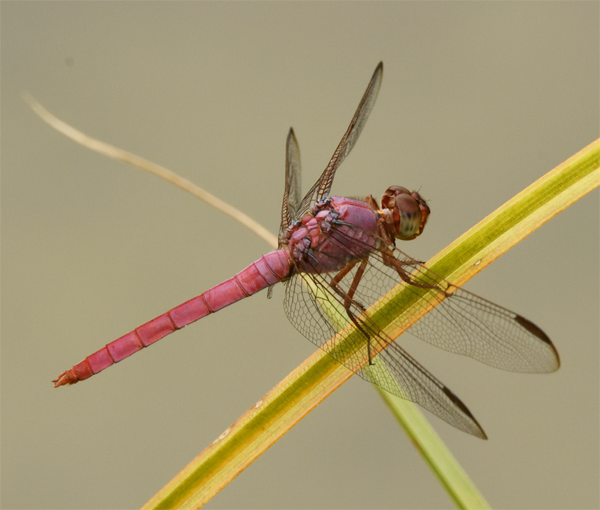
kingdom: Animalia
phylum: Arthropoda
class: Insecta
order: Odonata
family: Libellulidae
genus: Orthemis
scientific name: Orthemis ferruginea
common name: Roseate skimmer
